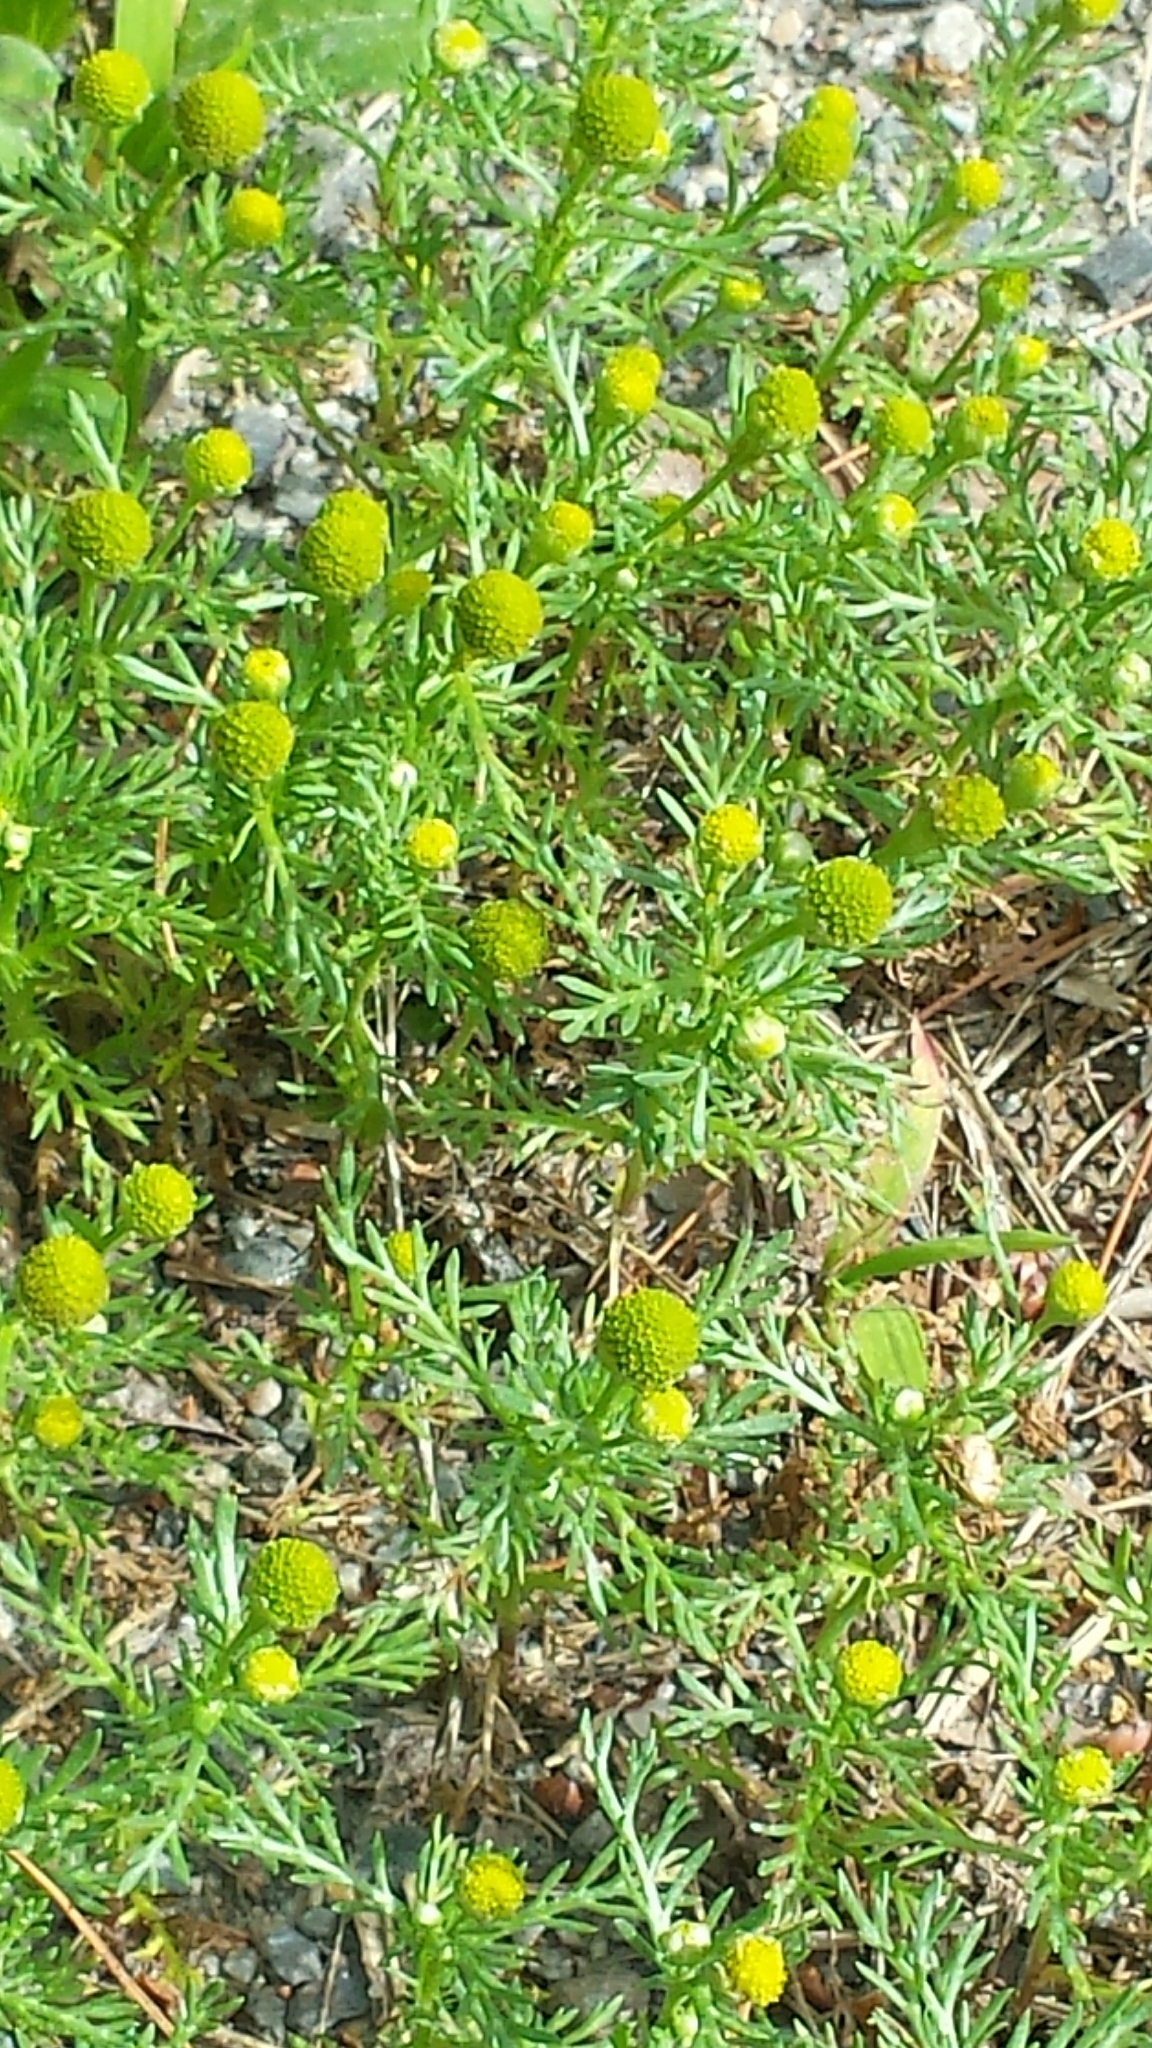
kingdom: Plantae
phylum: Tracheophyta
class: Magnoliopsida
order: Asterales
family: Asteraceae
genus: Matricaria
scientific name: Matricaria discoidea
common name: Disc mayweed
